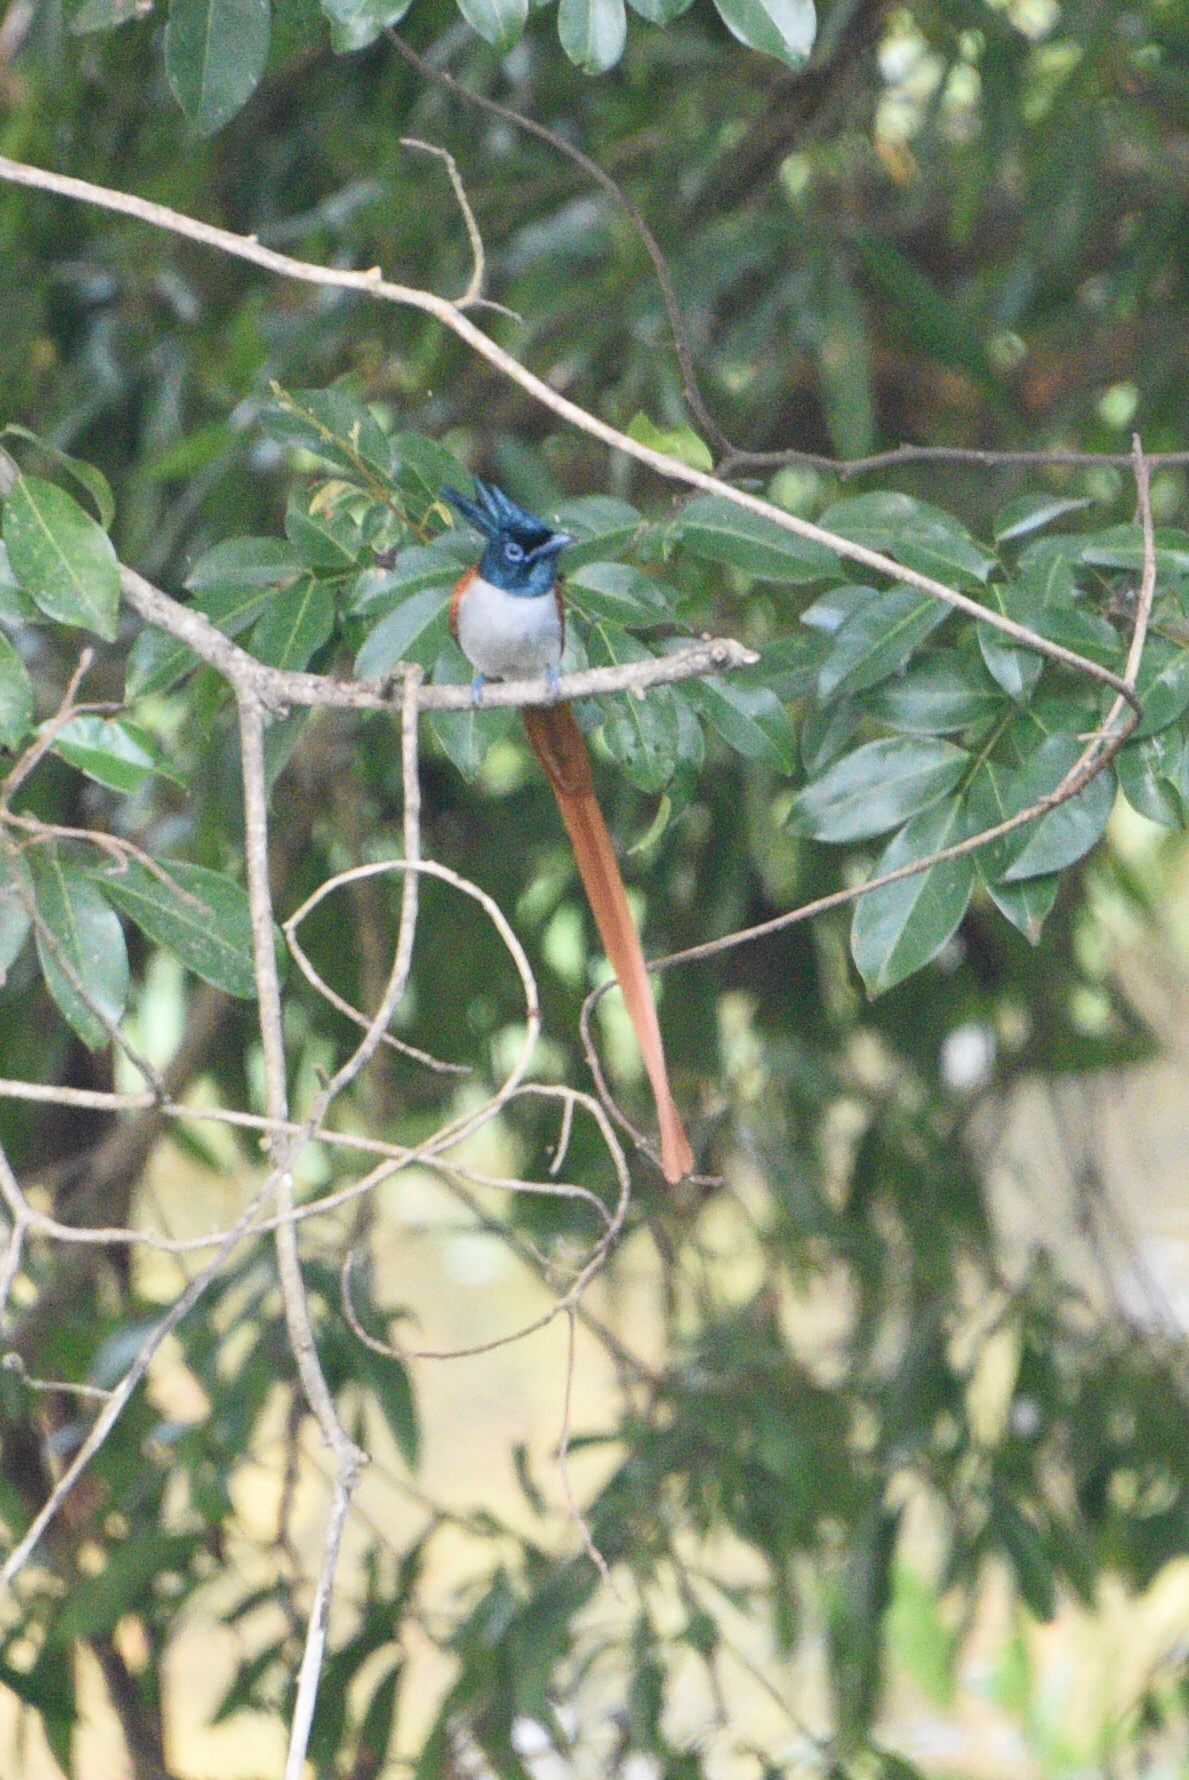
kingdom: Animalia
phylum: Chordata
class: Aves
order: Passeriformes
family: Monarchidae
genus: Terpsiphone
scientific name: Terpsiphone paradisi
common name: Indian paradise flycatcher
